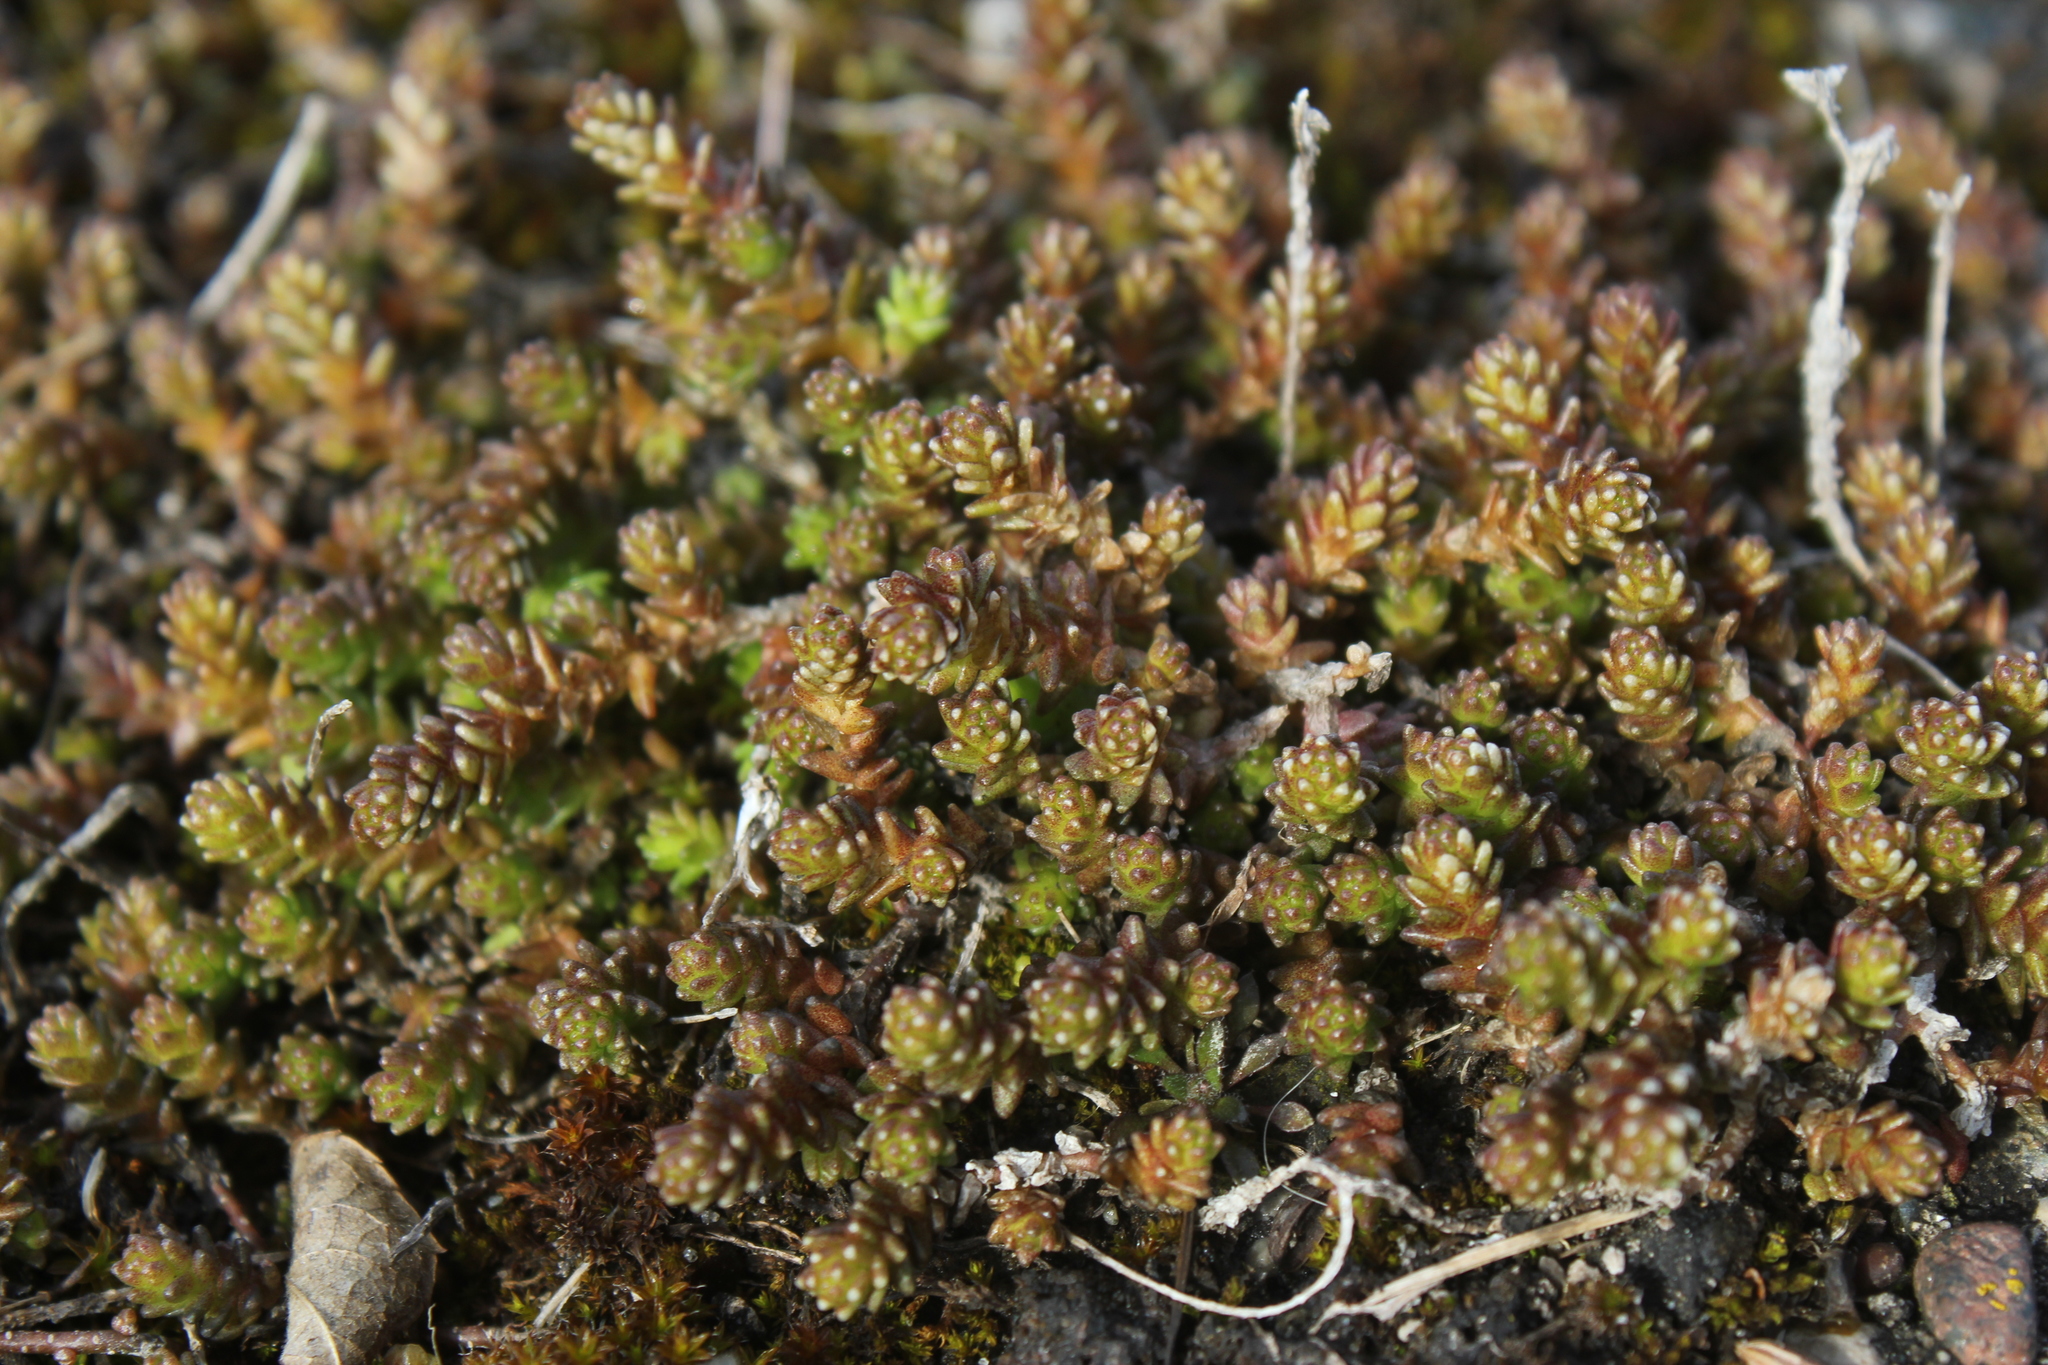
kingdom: Plantae
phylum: Tracheophyta
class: Magnoliopsida
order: Saxifragales
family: Crassulaceae
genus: Sedum
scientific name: Sedum acre
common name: Biting stonecrop
